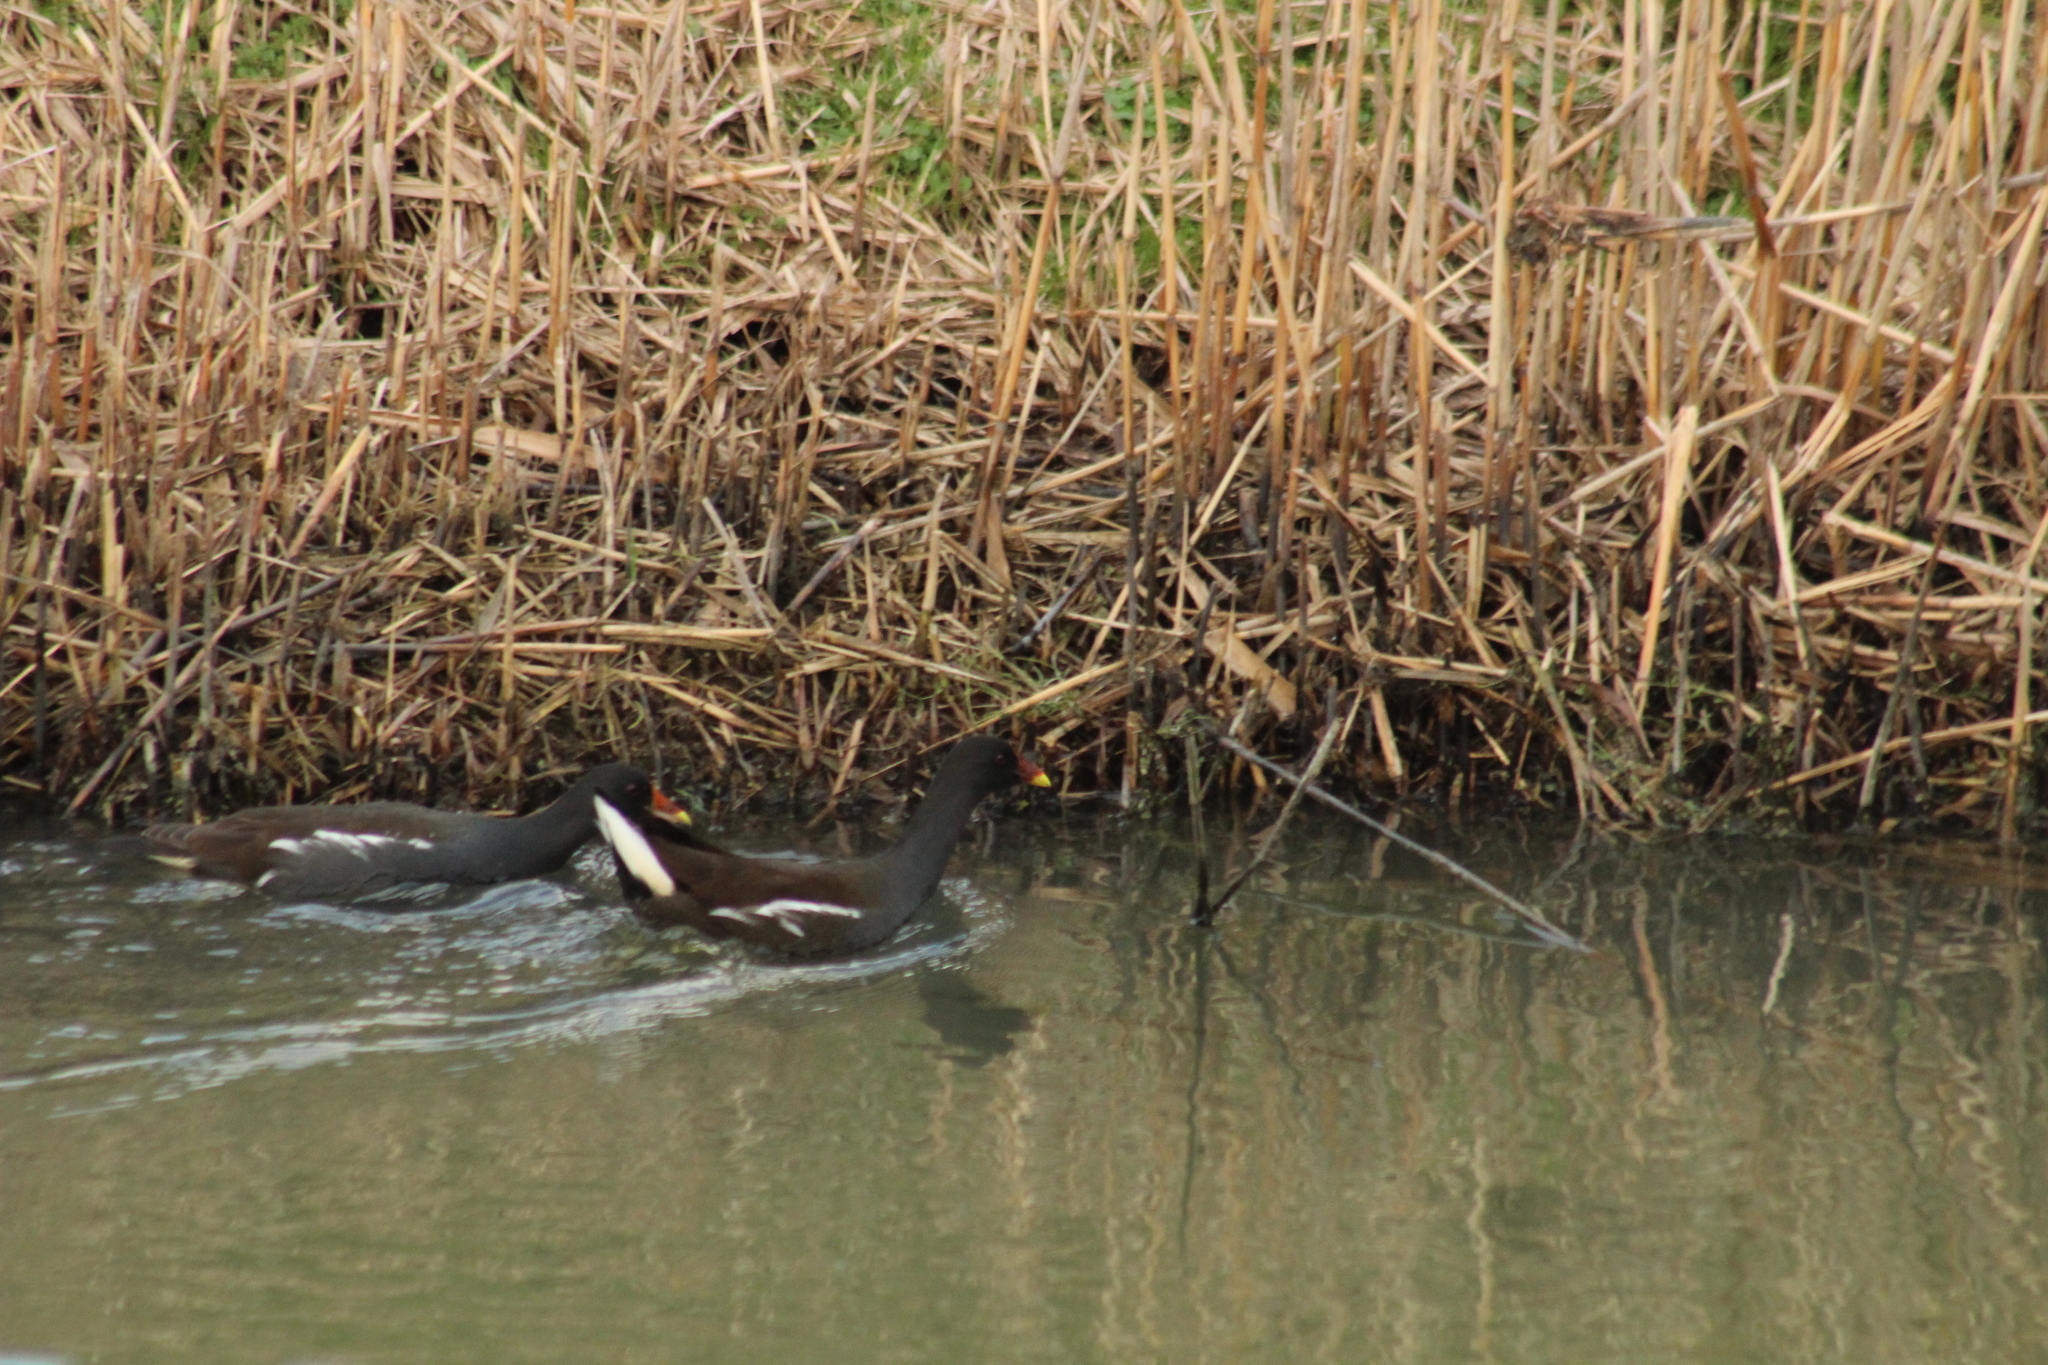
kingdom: Animalia
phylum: Chordata
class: Aves
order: Gruiformes
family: Rallidae
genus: Gallinula
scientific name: Gallinula chloropus
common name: Common moorhen
